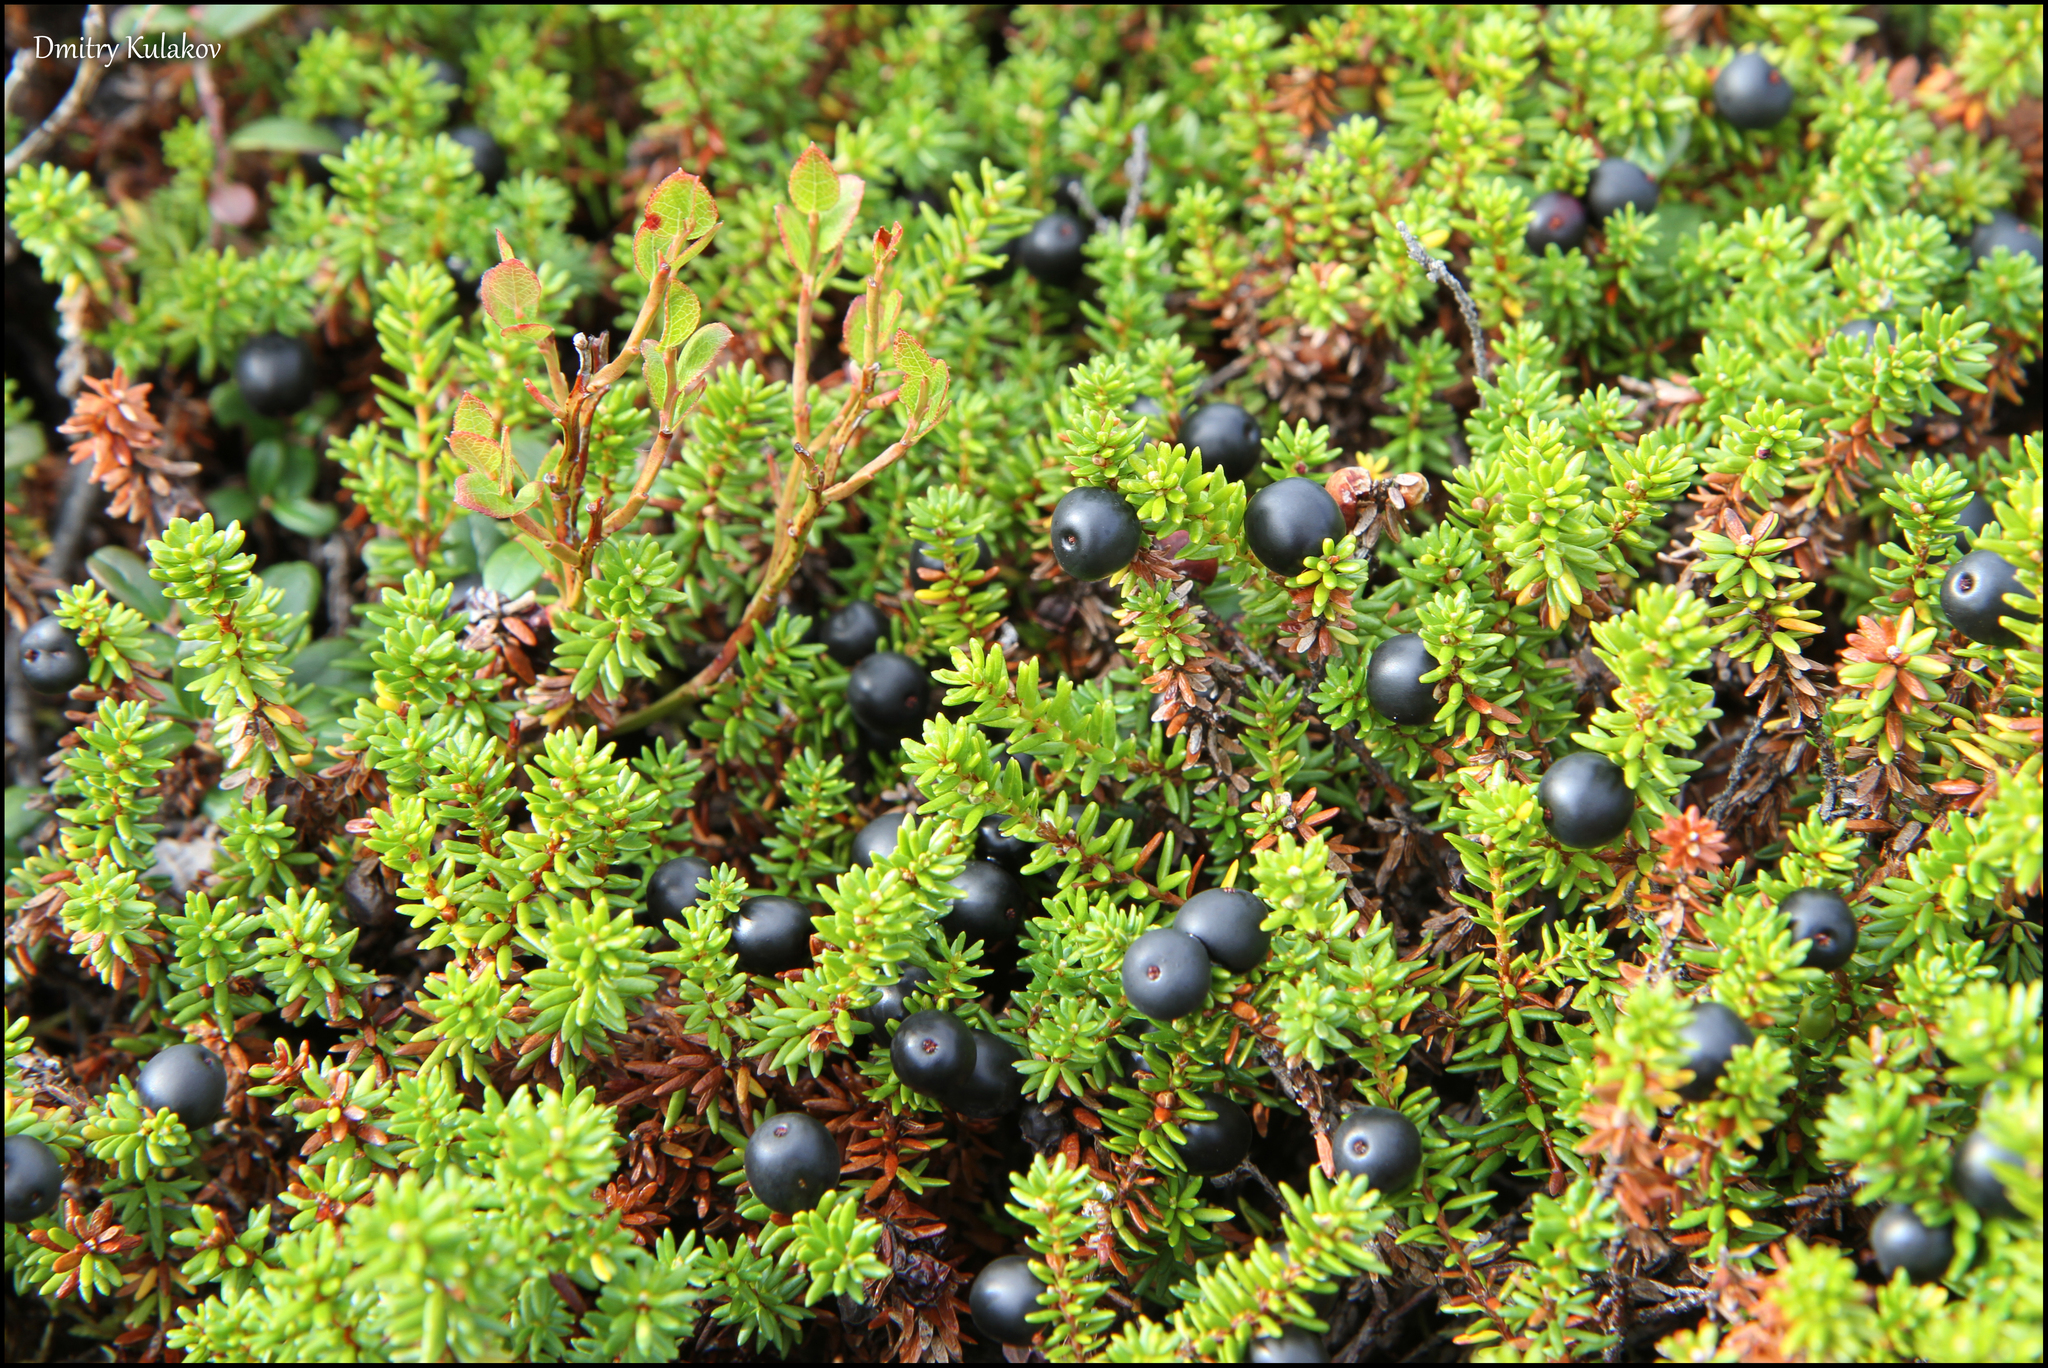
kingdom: Plantae
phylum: Tracheophyta
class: Magnoliopsida
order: Ericales
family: Ericaceae
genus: Empetrum
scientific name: Empetrum hermaphroditum
